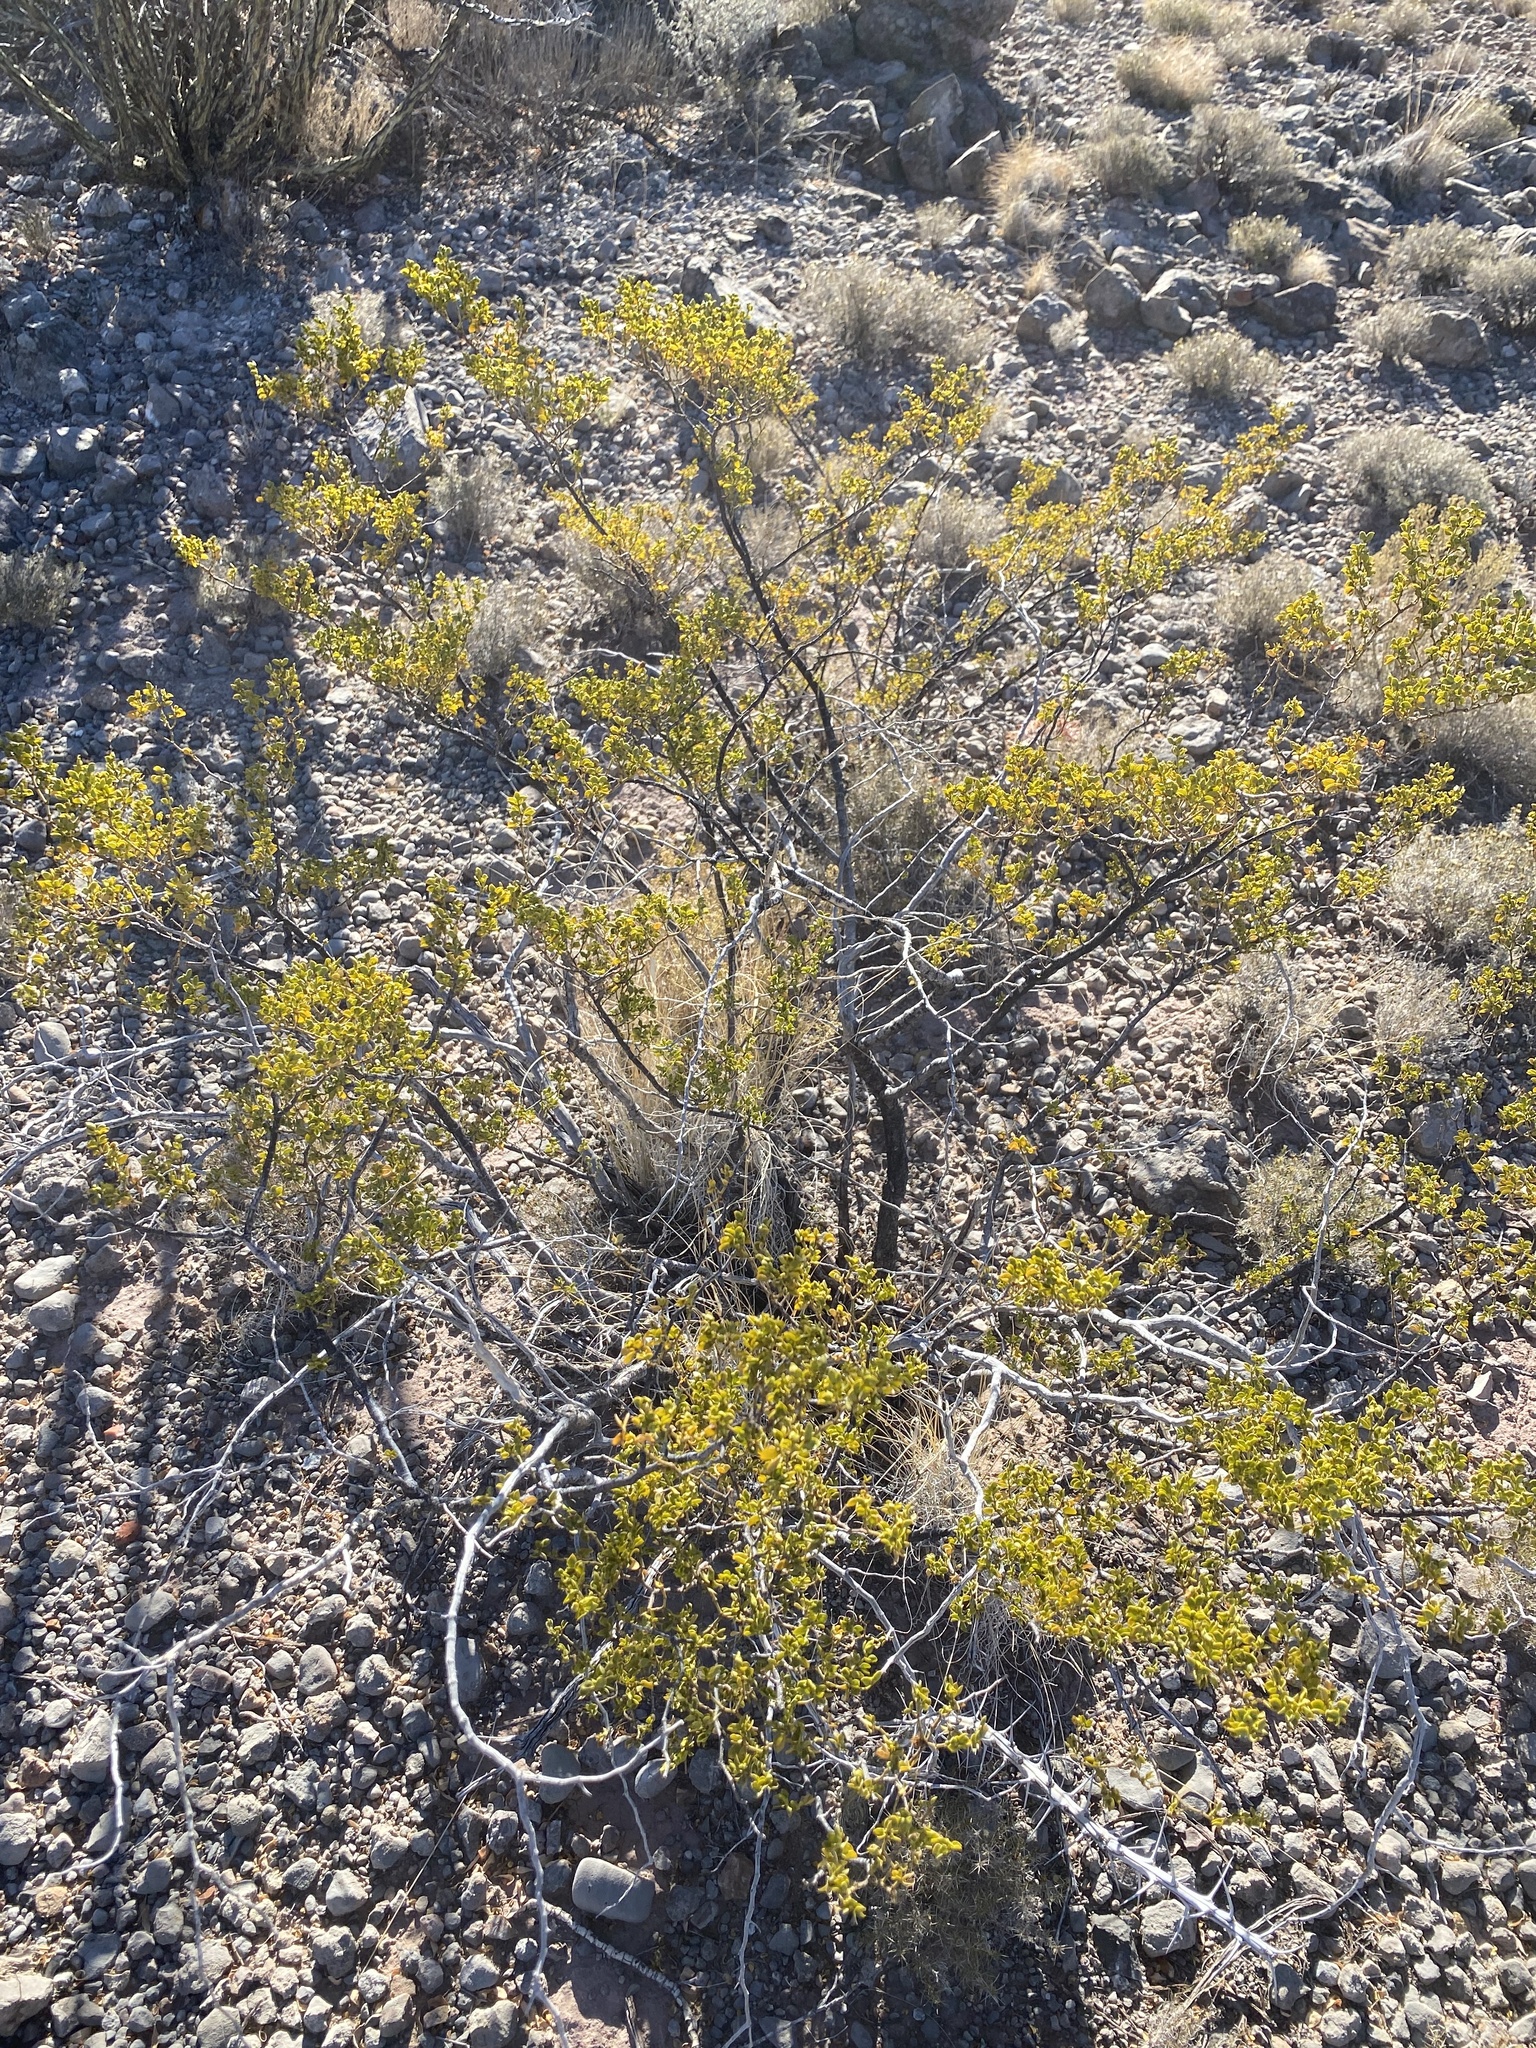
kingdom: Plantae
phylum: Tracheophyta
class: Magnoliopsida
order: Zygophyllales
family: Zygophyllaceae
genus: Larrea
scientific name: Larrea tridentata
